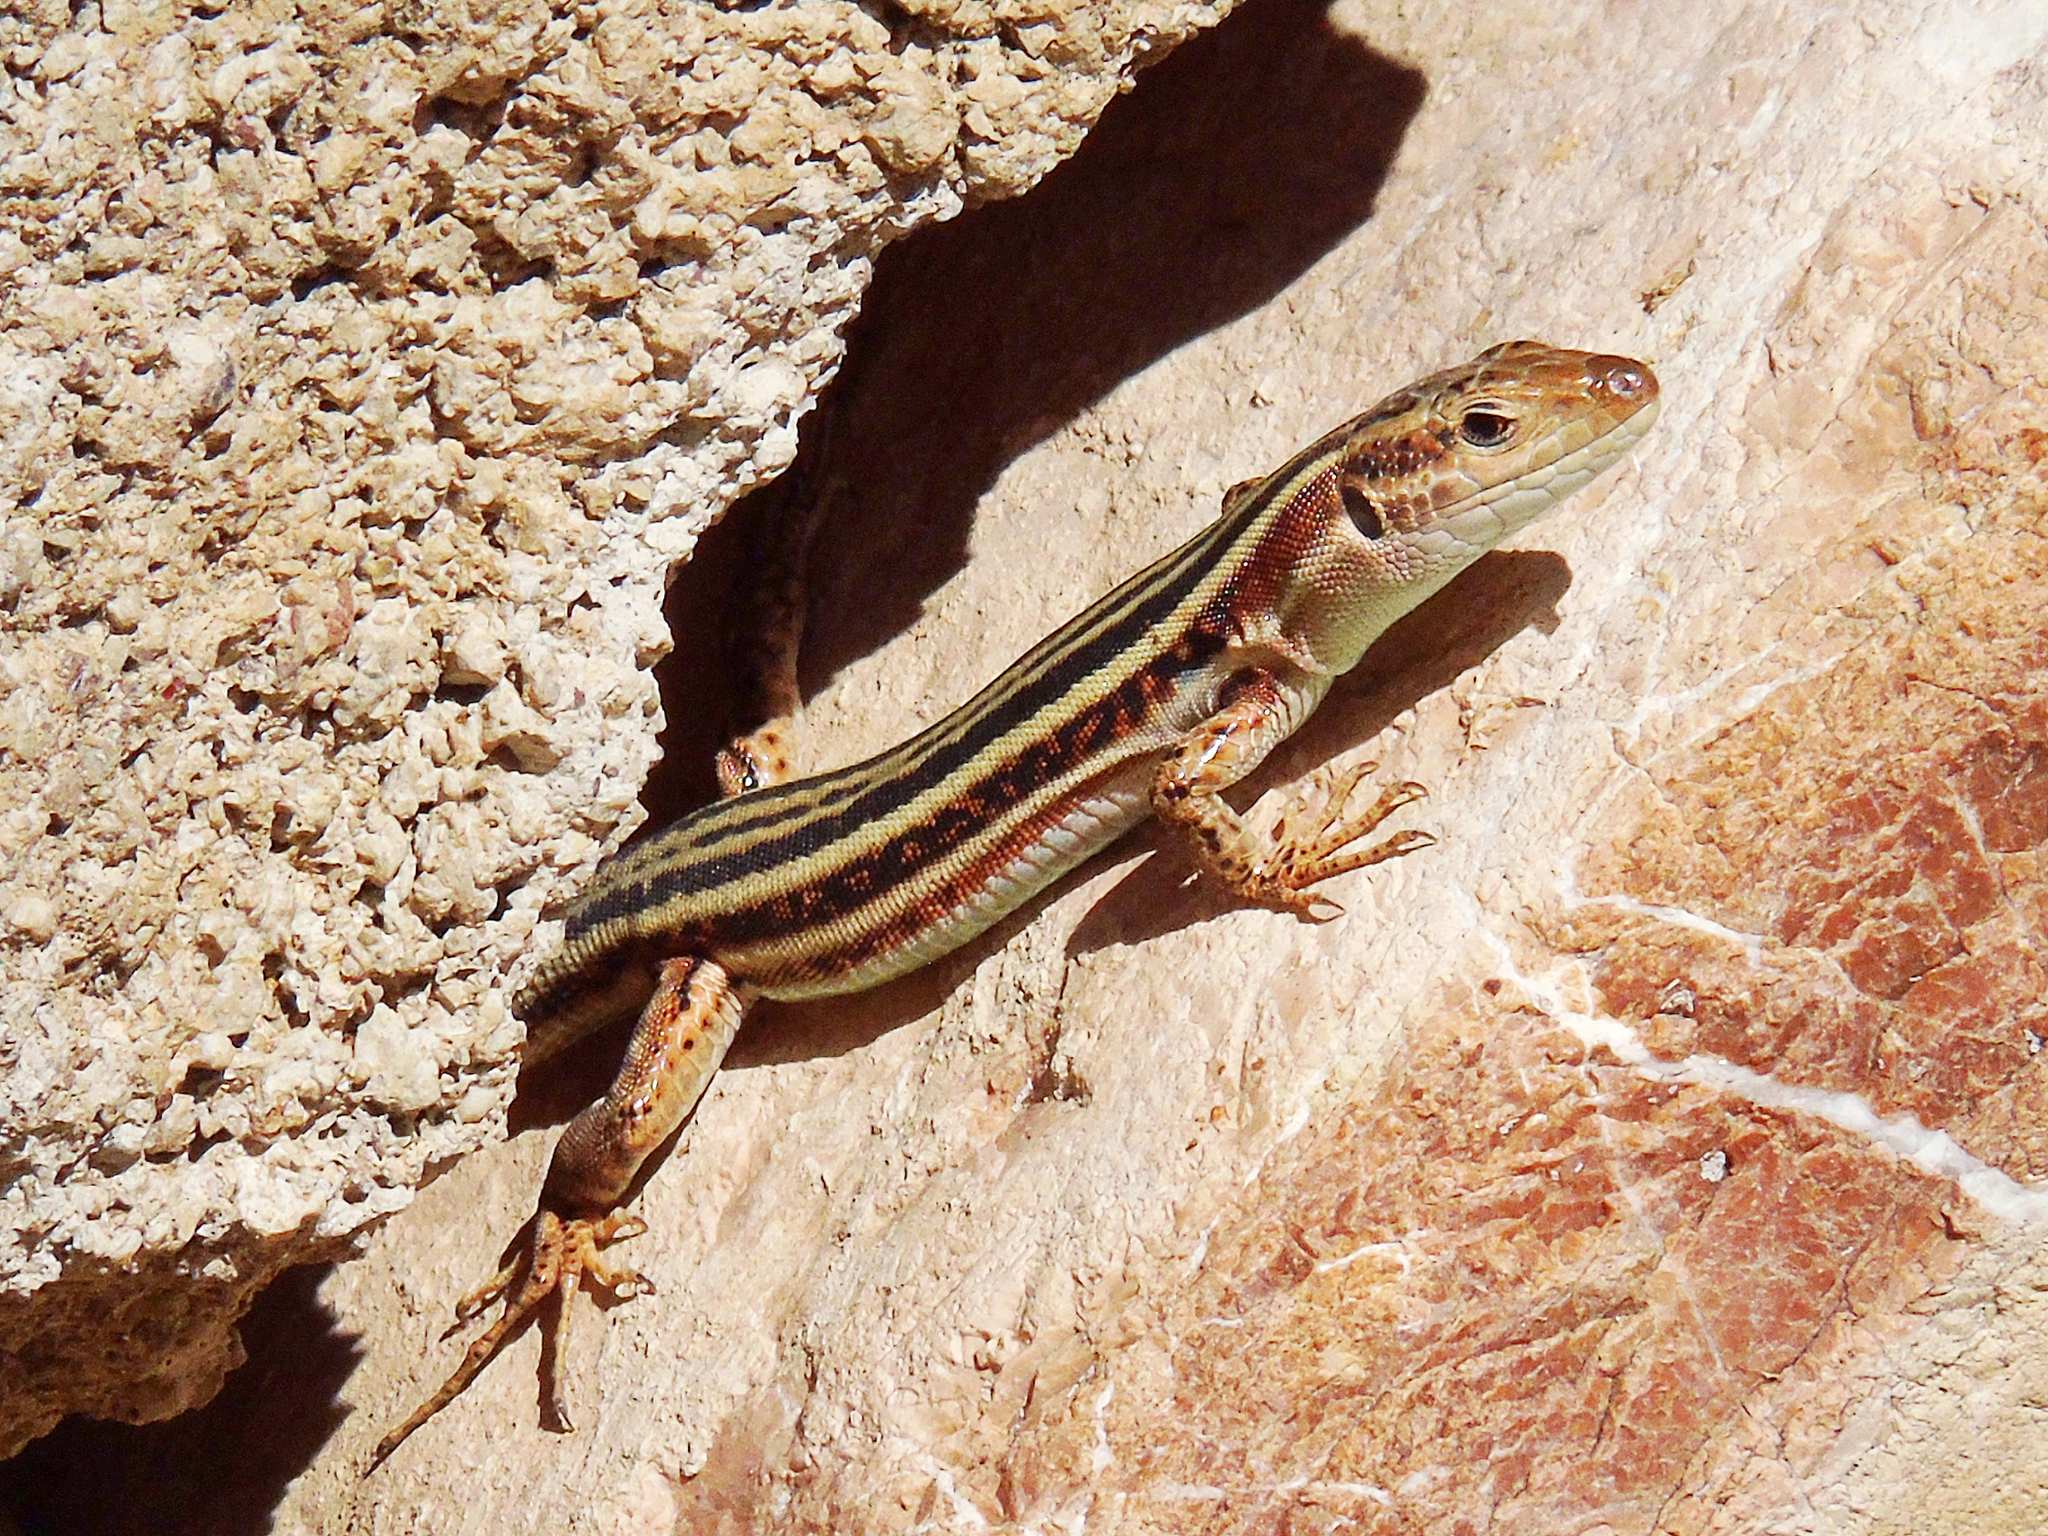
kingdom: Animalia
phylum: Chordata
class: Squamata
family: Lacertidae
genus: Podarcis
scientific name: Podarcis peloponnesiacus
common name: Peloponnese wall lizard
